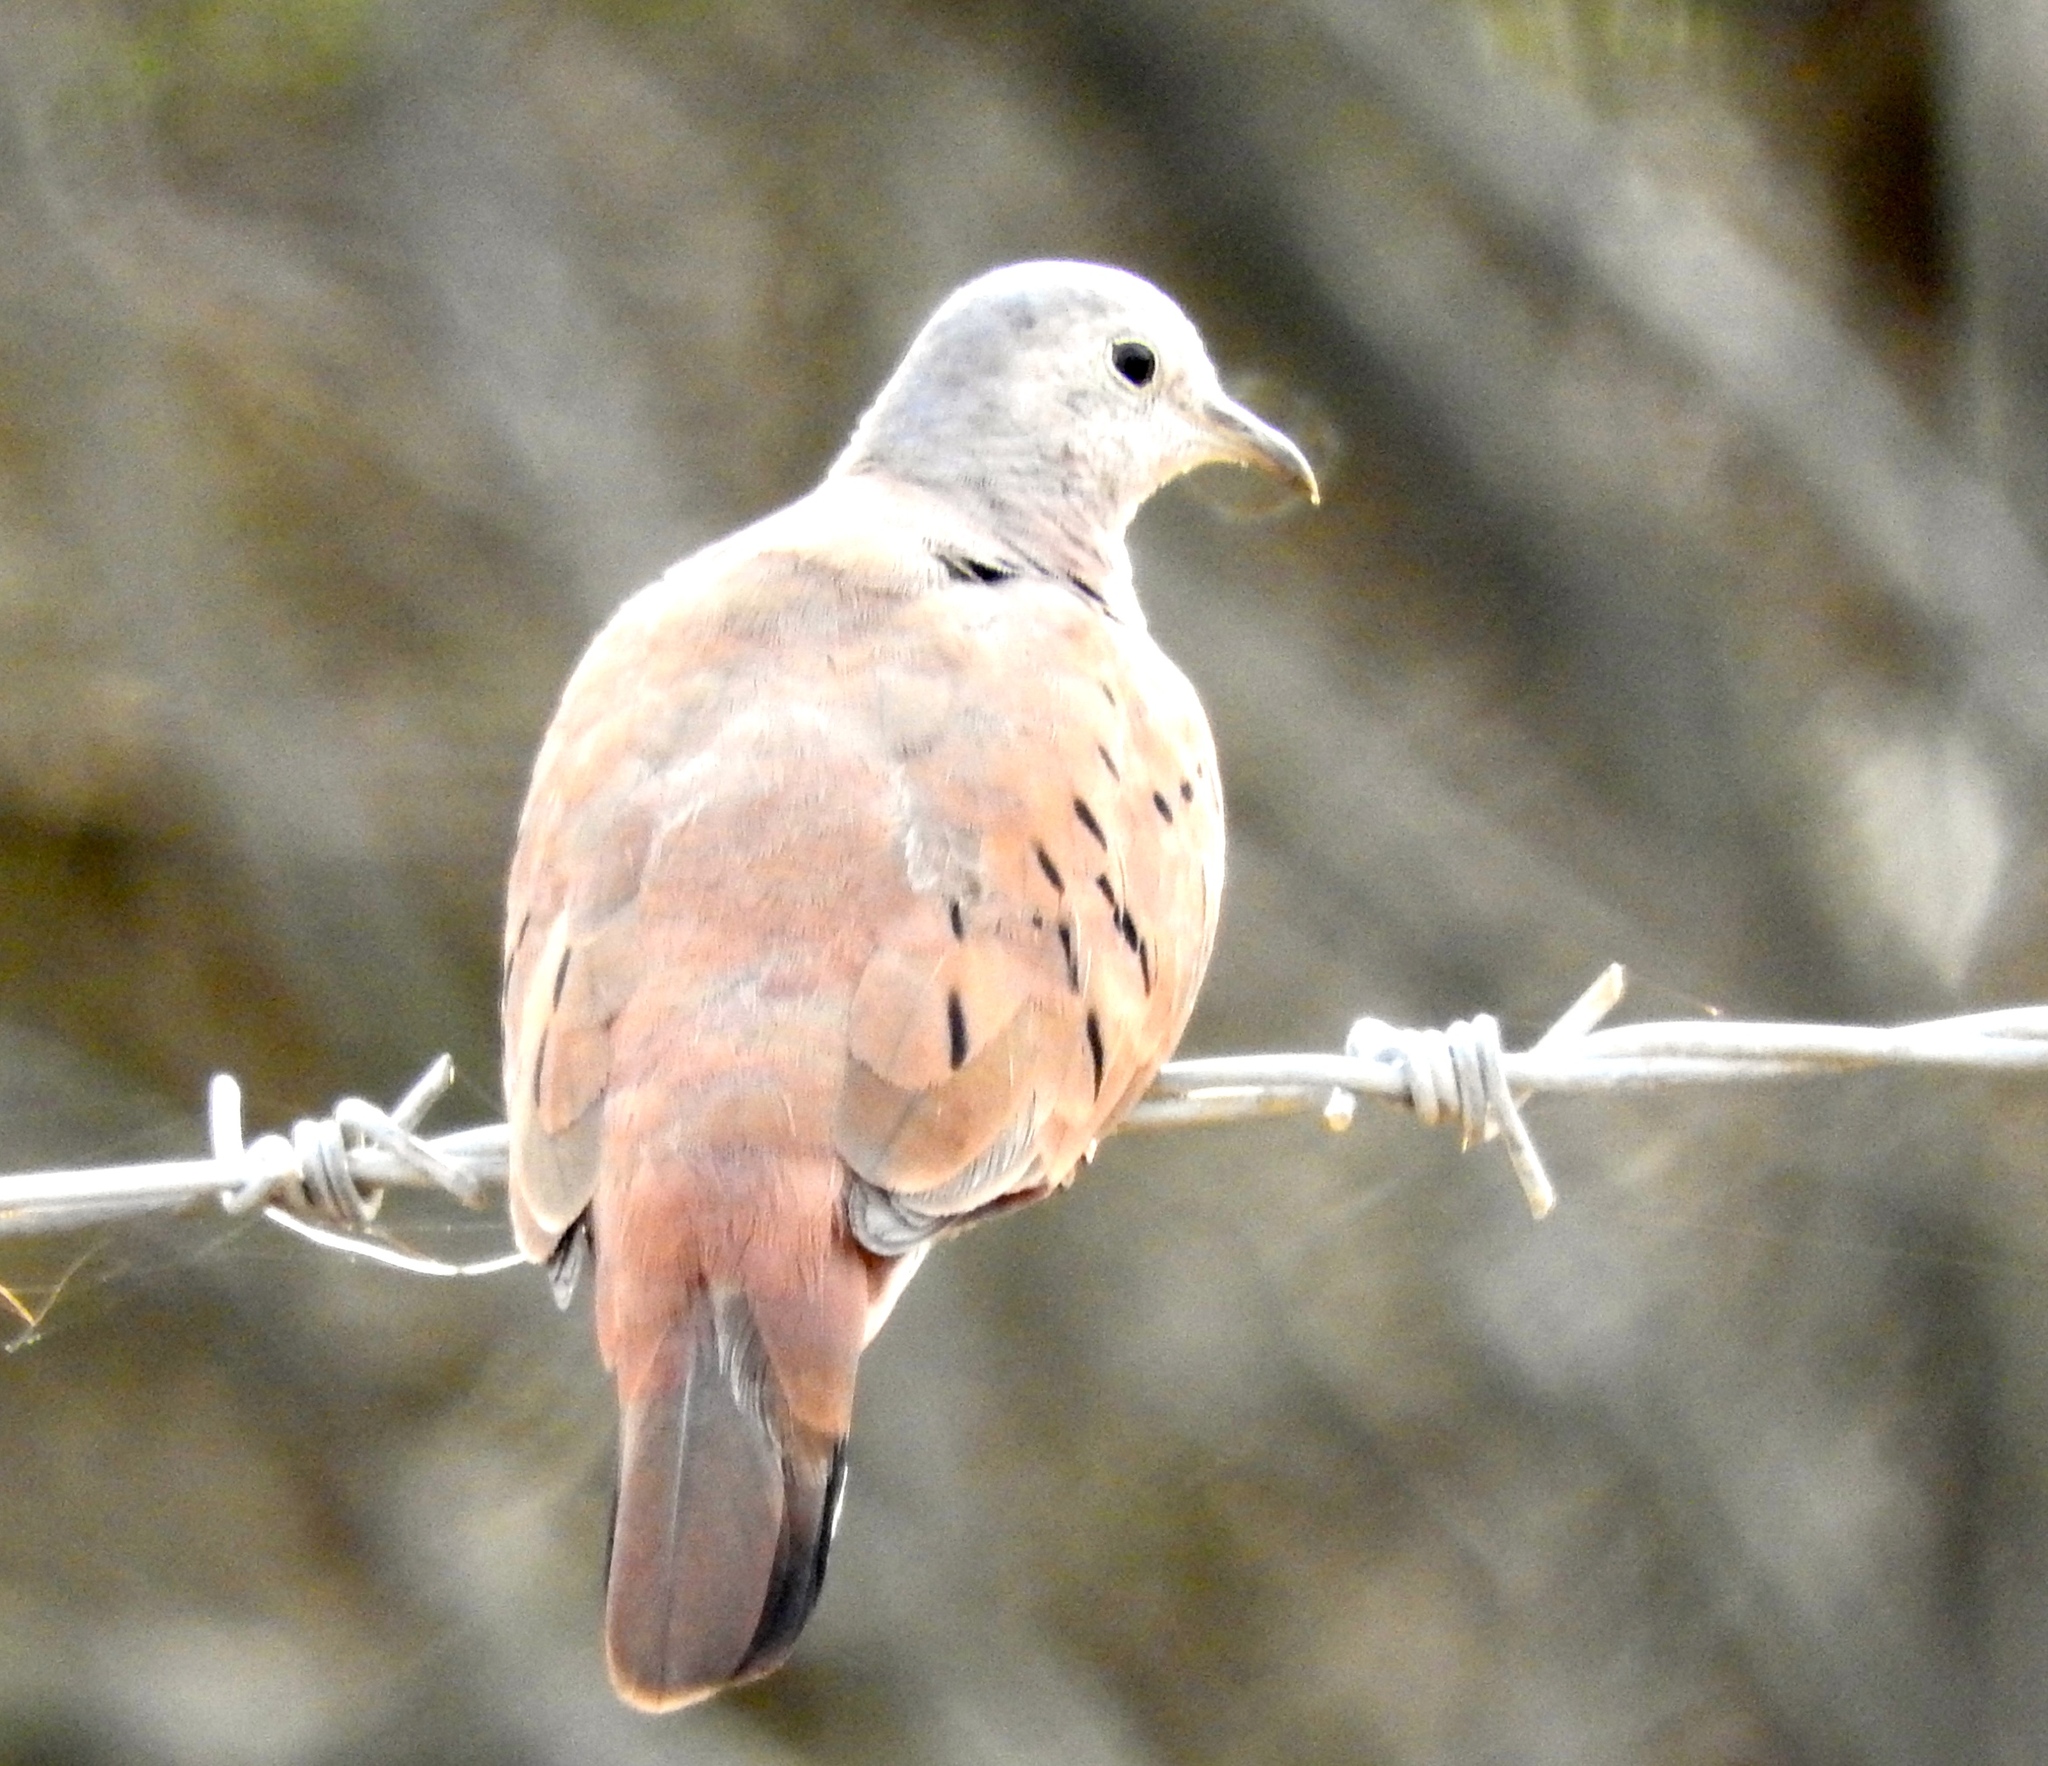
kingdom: Animalia
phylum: Chordata
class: Aves
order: Columbiformes
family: Columbidae
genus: Columbina
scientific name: Columbina talpacoti
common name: Ruddy ground dove
